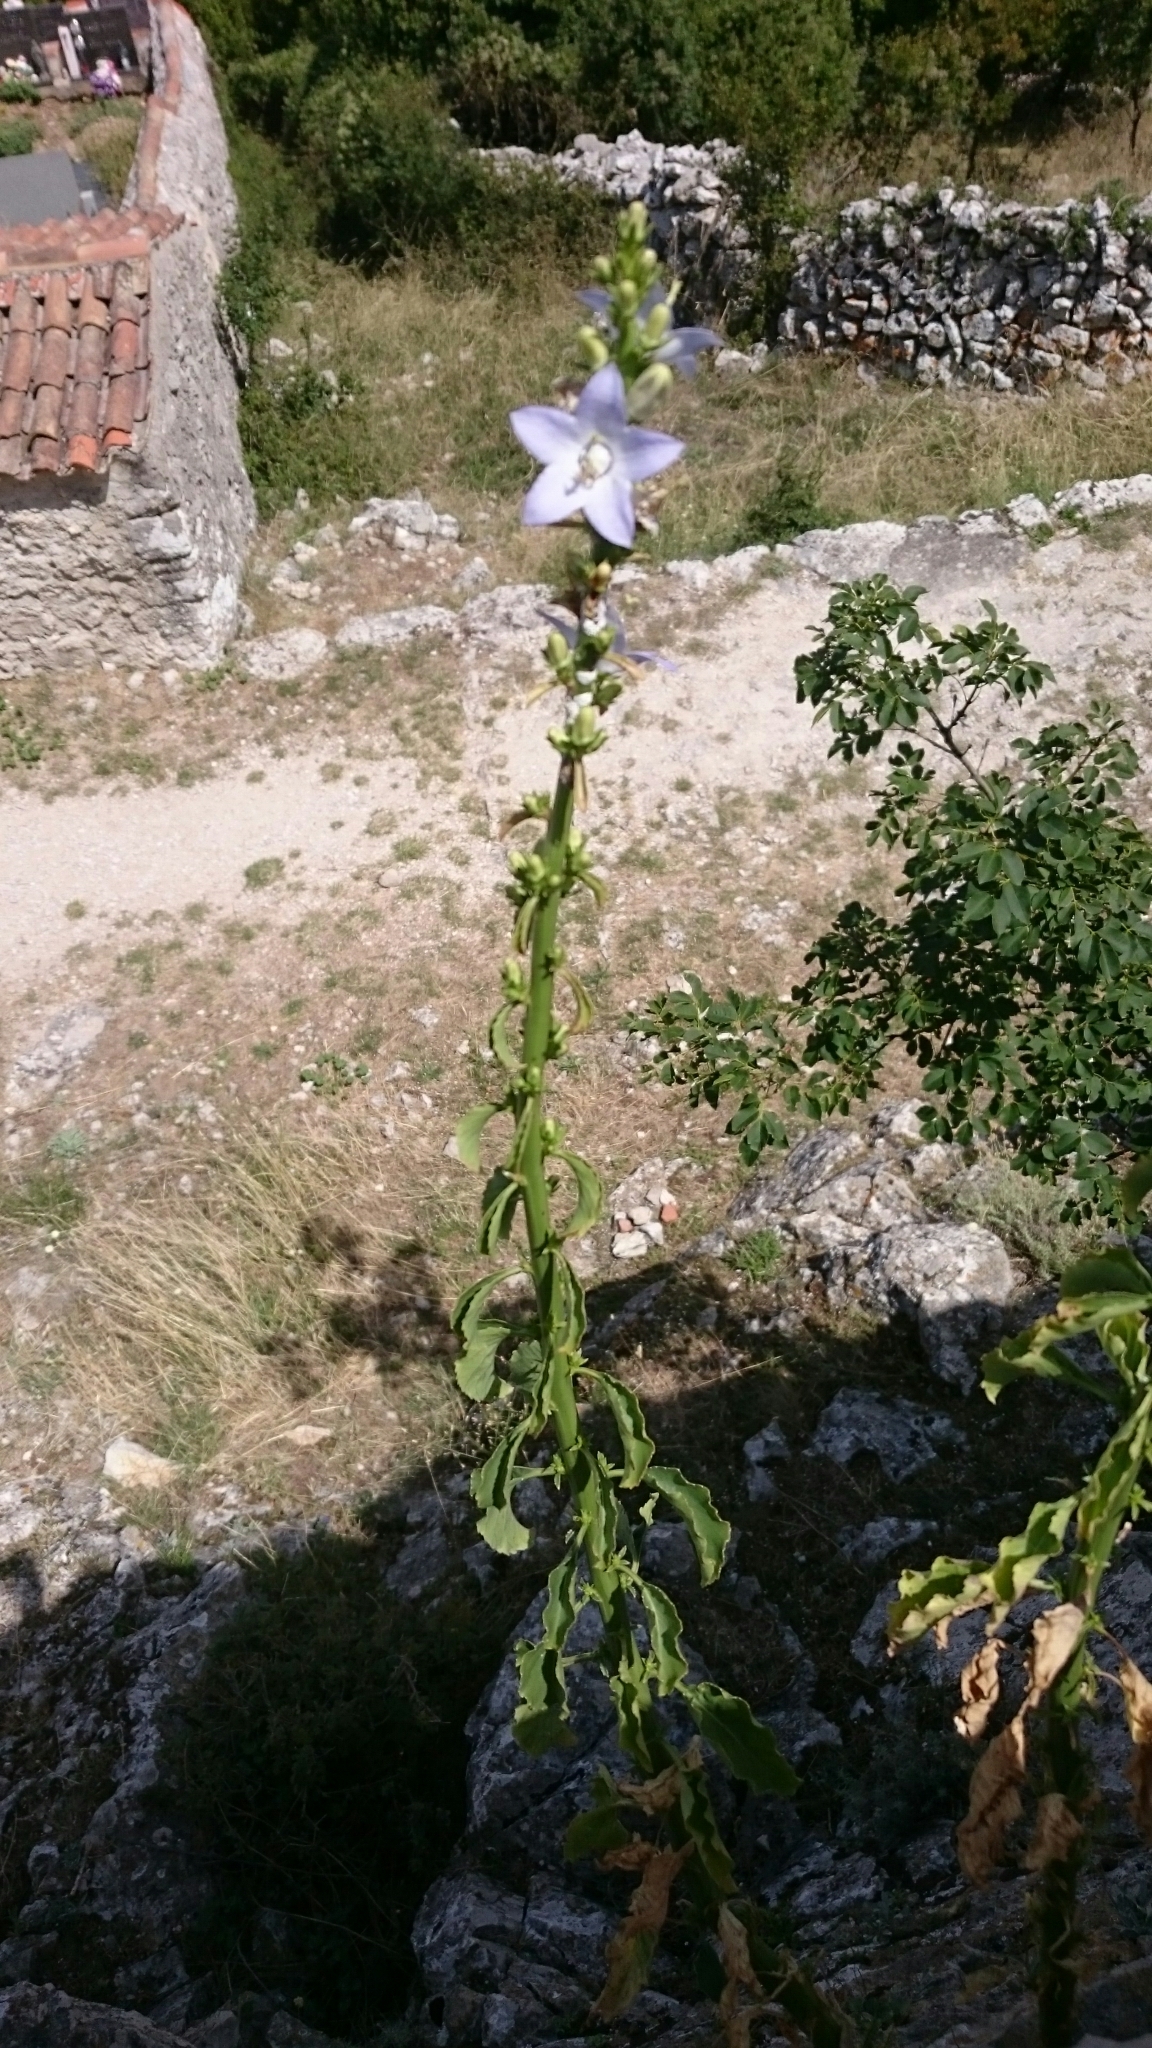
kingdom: Plantae
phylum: Tracheophyta
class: Magnoliopsida
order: Asterales
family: Campanulaceae
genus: Campanula
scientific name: Campanula pyramidalis
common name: Chimney bellflower
